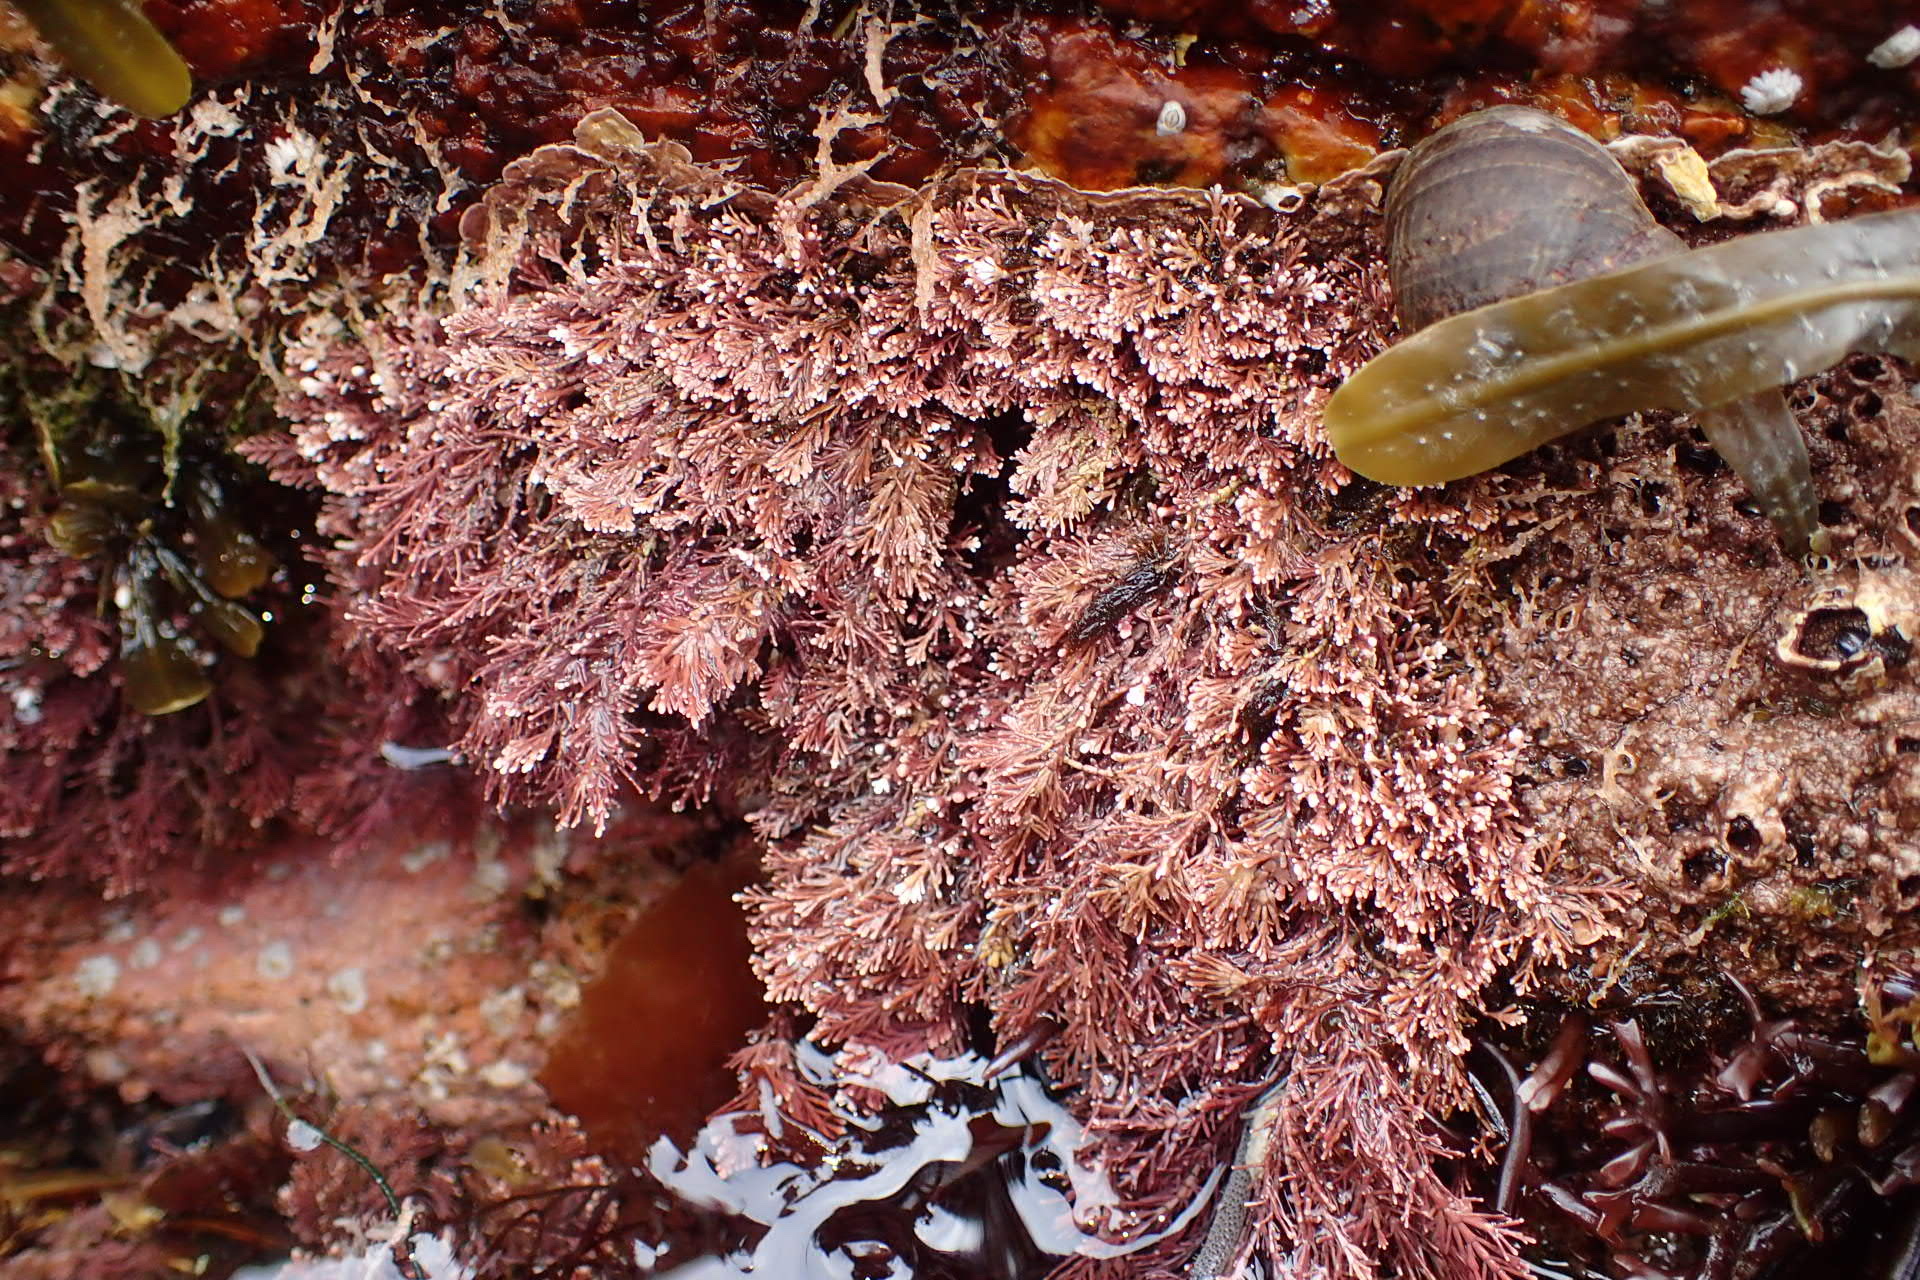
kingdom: Plantae
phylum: Rhodophyta
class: Florideophyceae
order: Corallinales
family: Corallinaceae
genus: Corallina
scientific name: Corallina officinalis
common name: Coral weed
